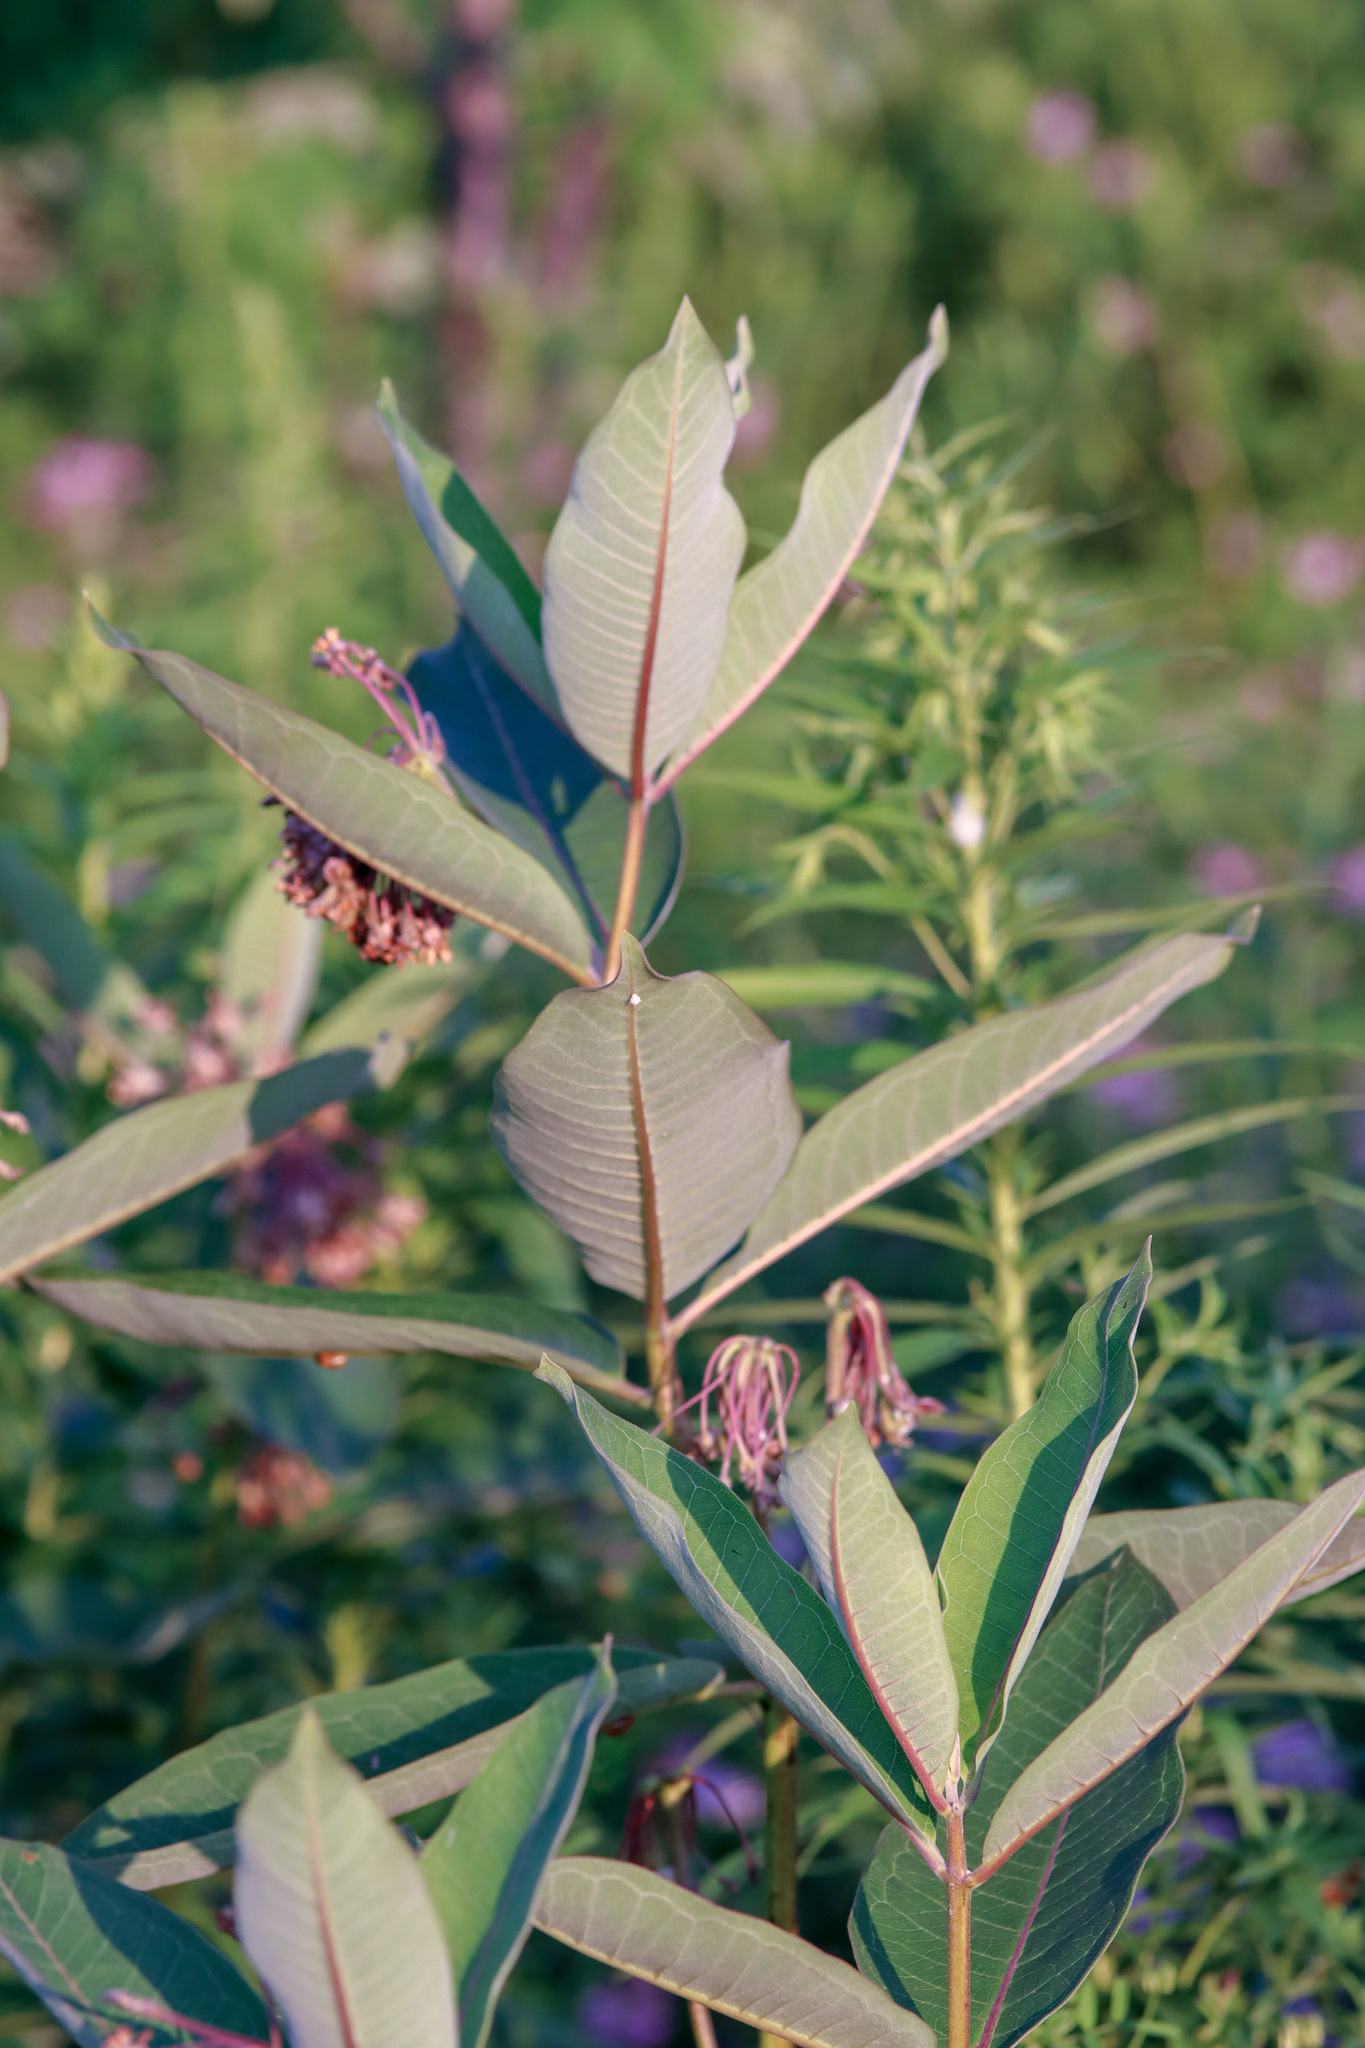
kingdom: Plantae
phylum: Tracheophyta
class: Magnoliopsida
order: Gentianales
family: Apocynaceae
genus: Asclepias
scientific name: Asclepias syriaca
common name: Common milkweed
